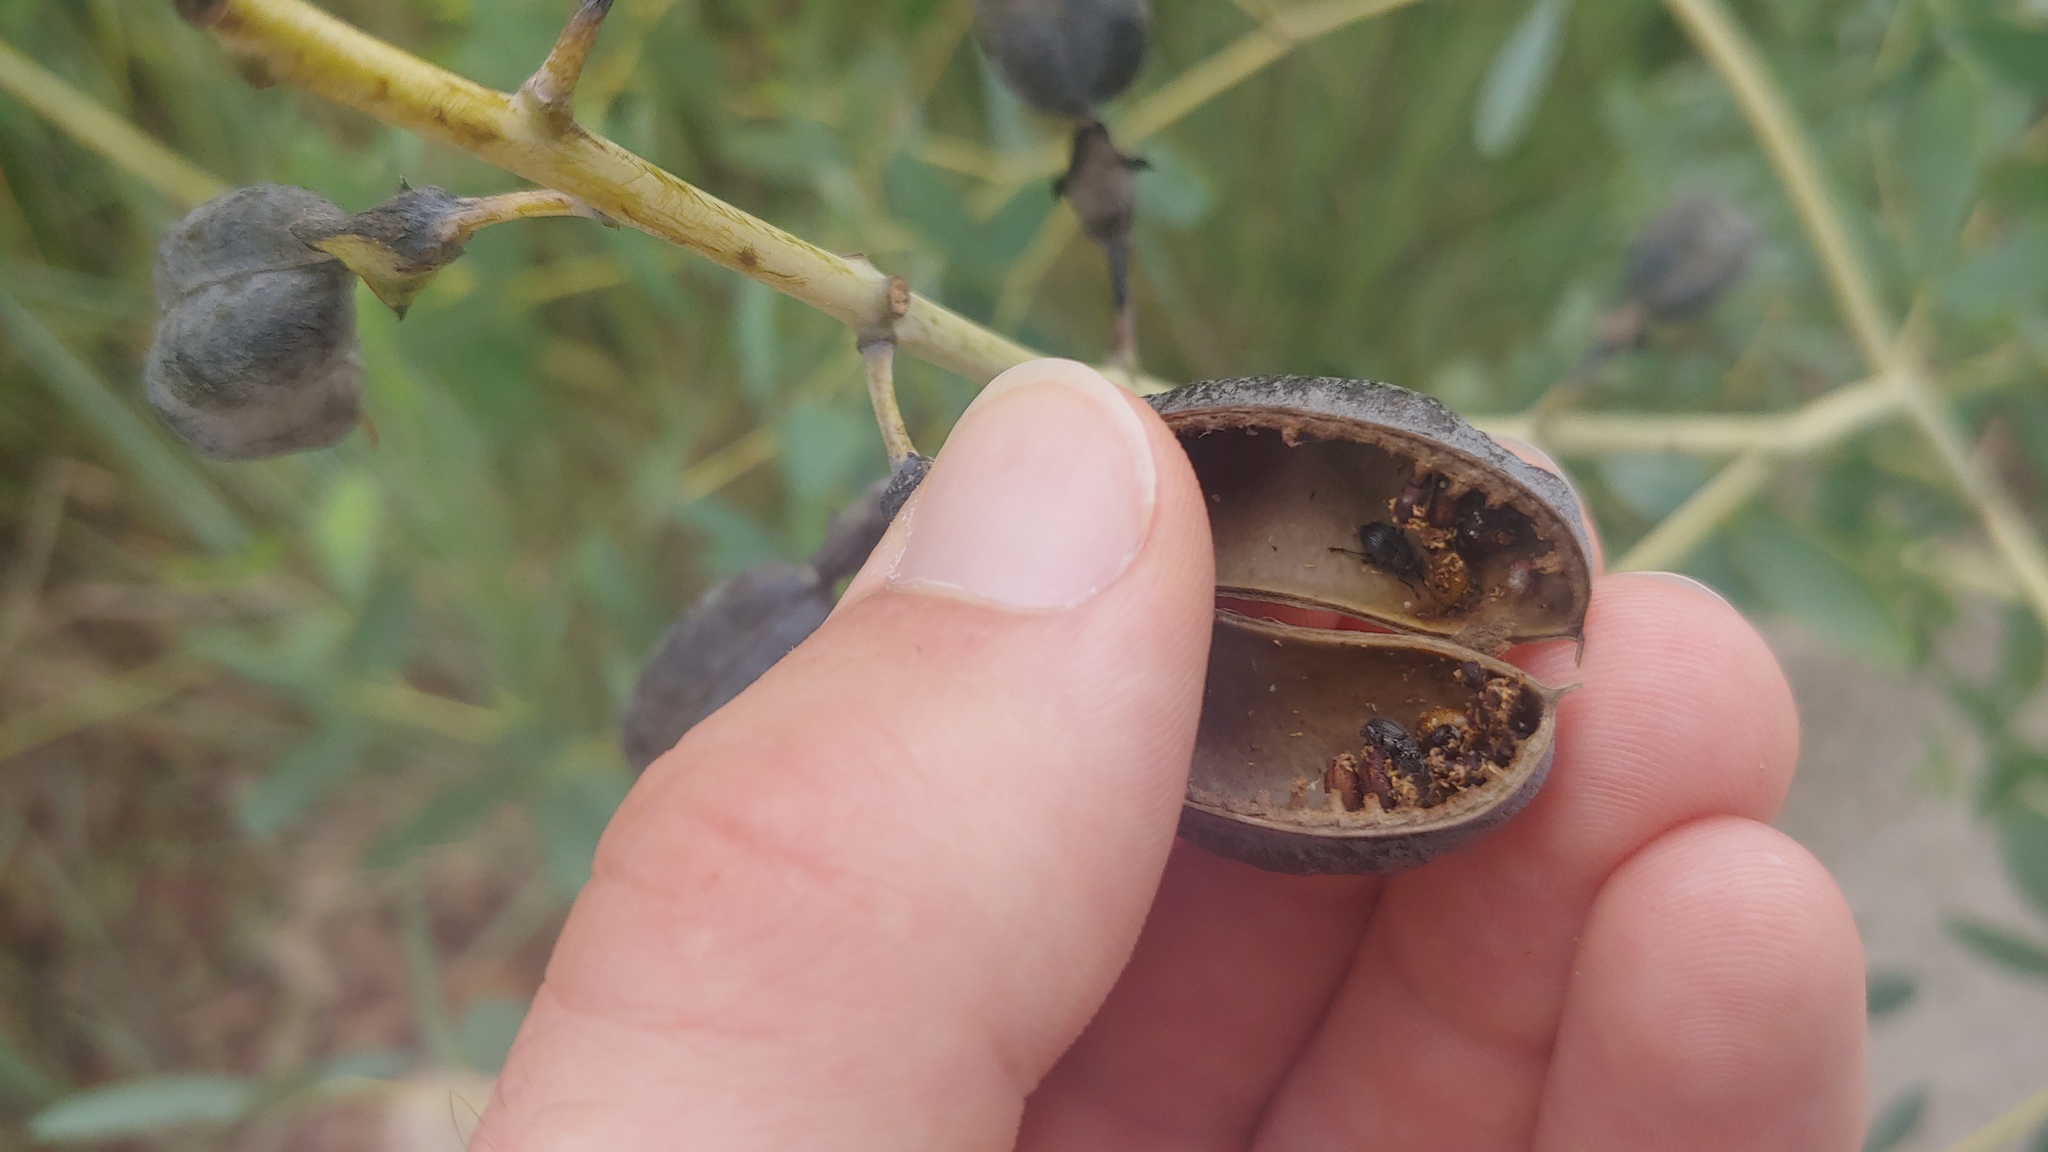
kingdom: Animalia
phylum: Arthropoda
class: Insecta
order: Coleoptera
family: Brentidae
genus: Trichapion
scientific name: Trichapion
